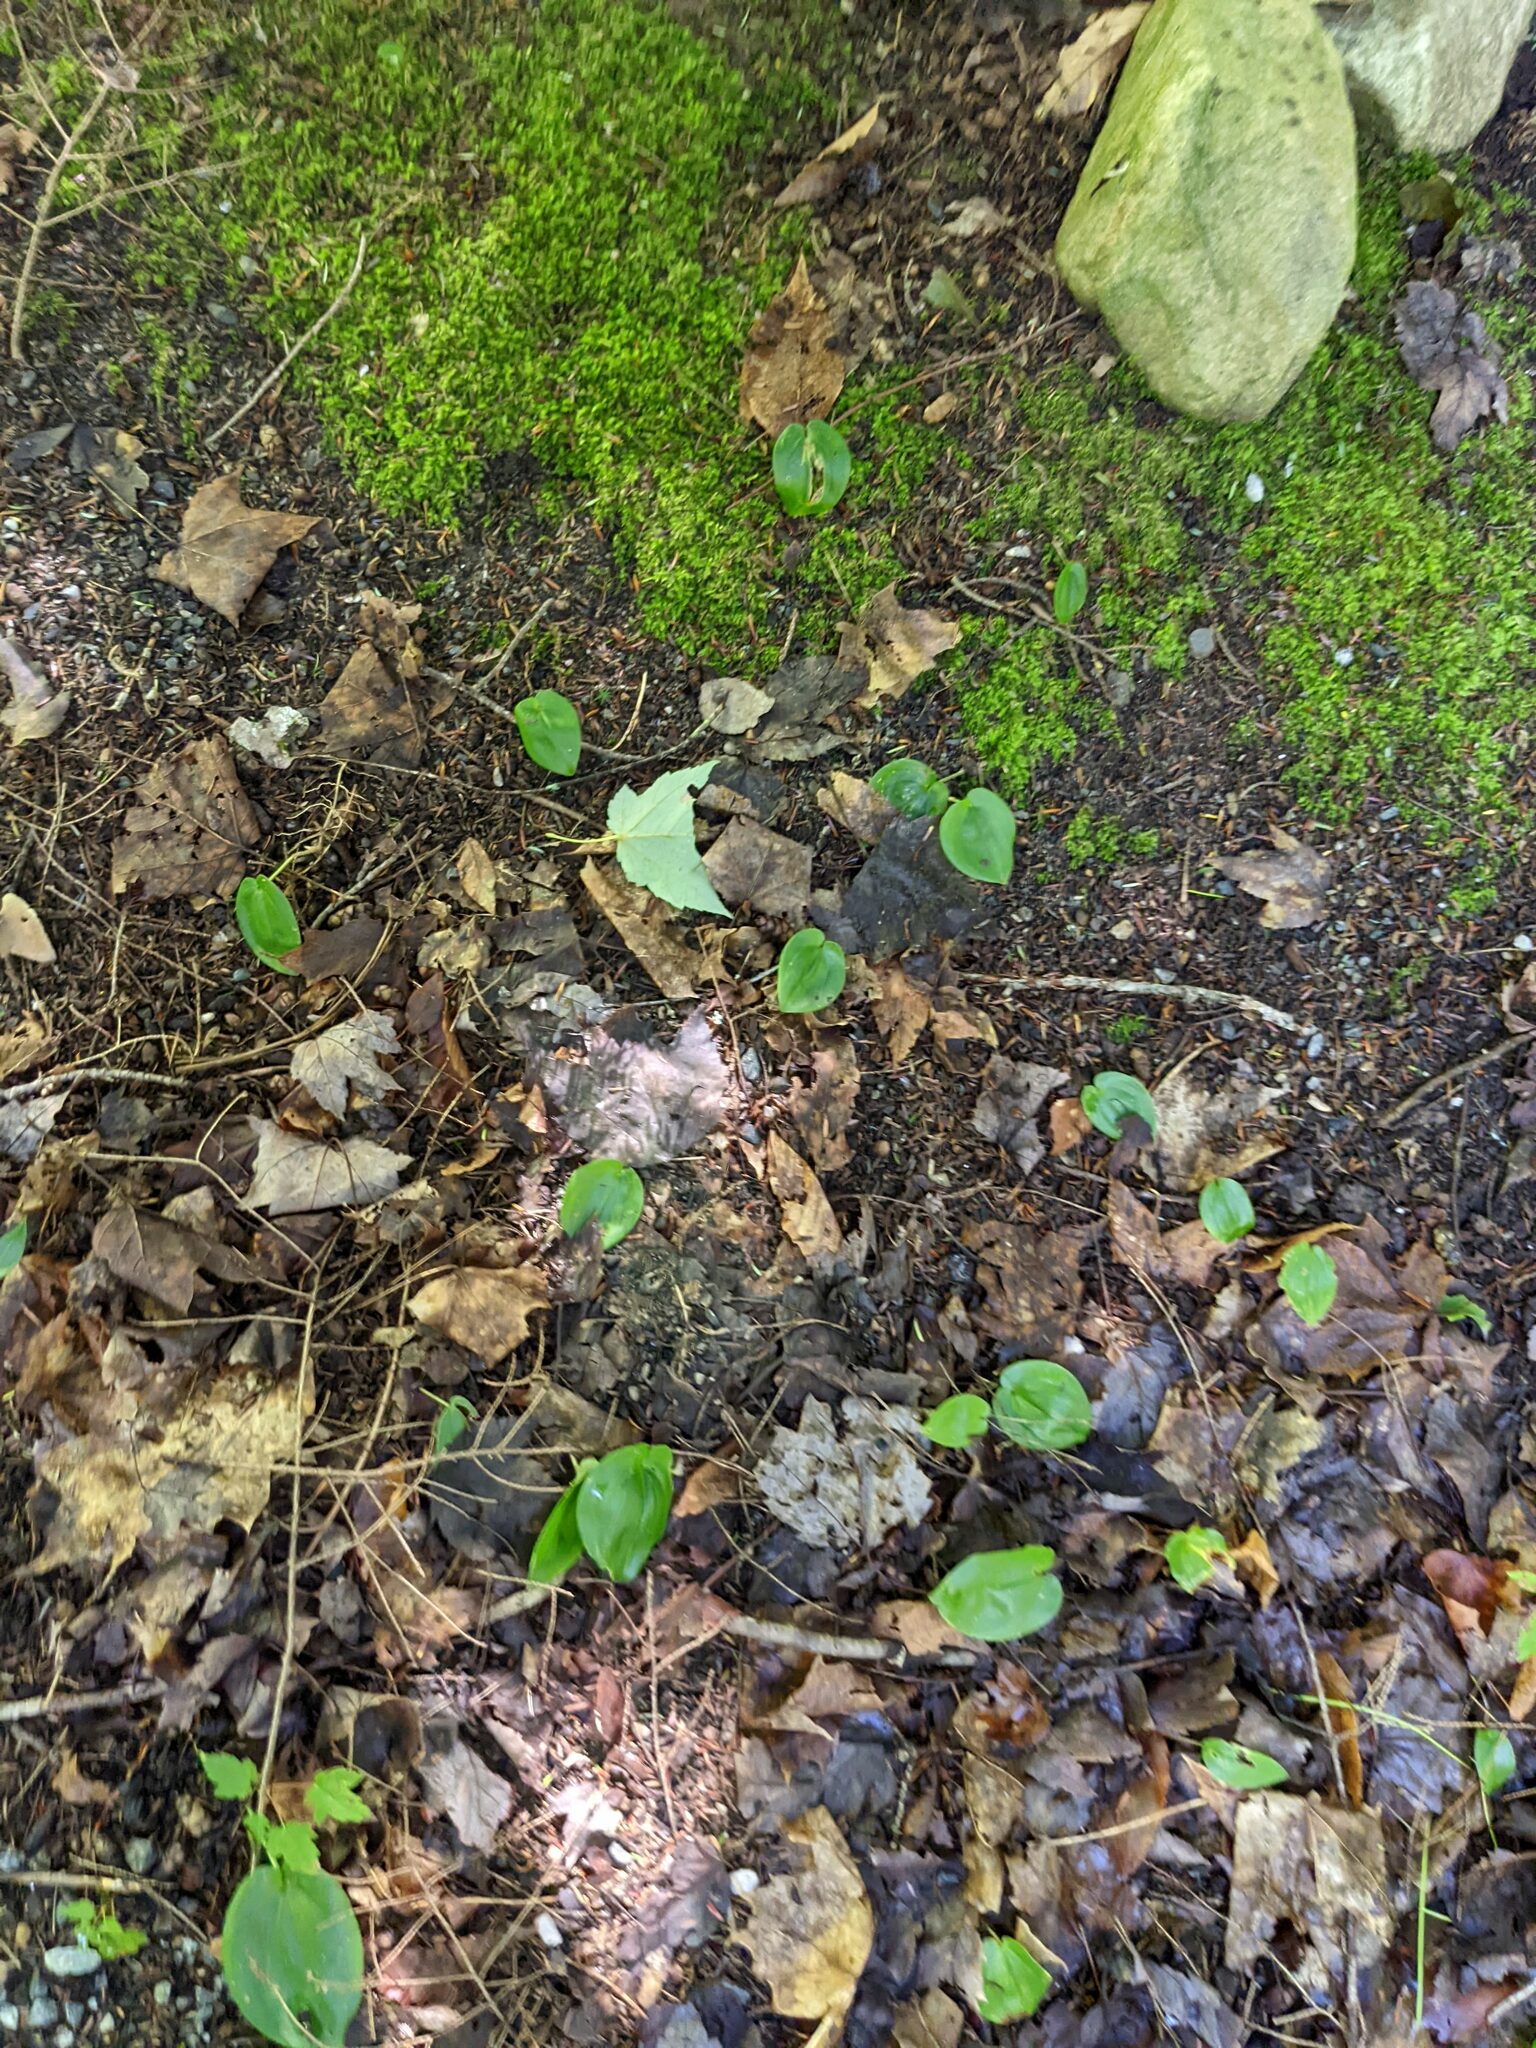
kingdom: Plantae
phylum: Tracheophyta
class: Liliopsida
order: Asparagales
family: Asparagaceae
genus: Maianthemum
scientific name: Maianthemum canadense
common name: False lily-of-the-valley
